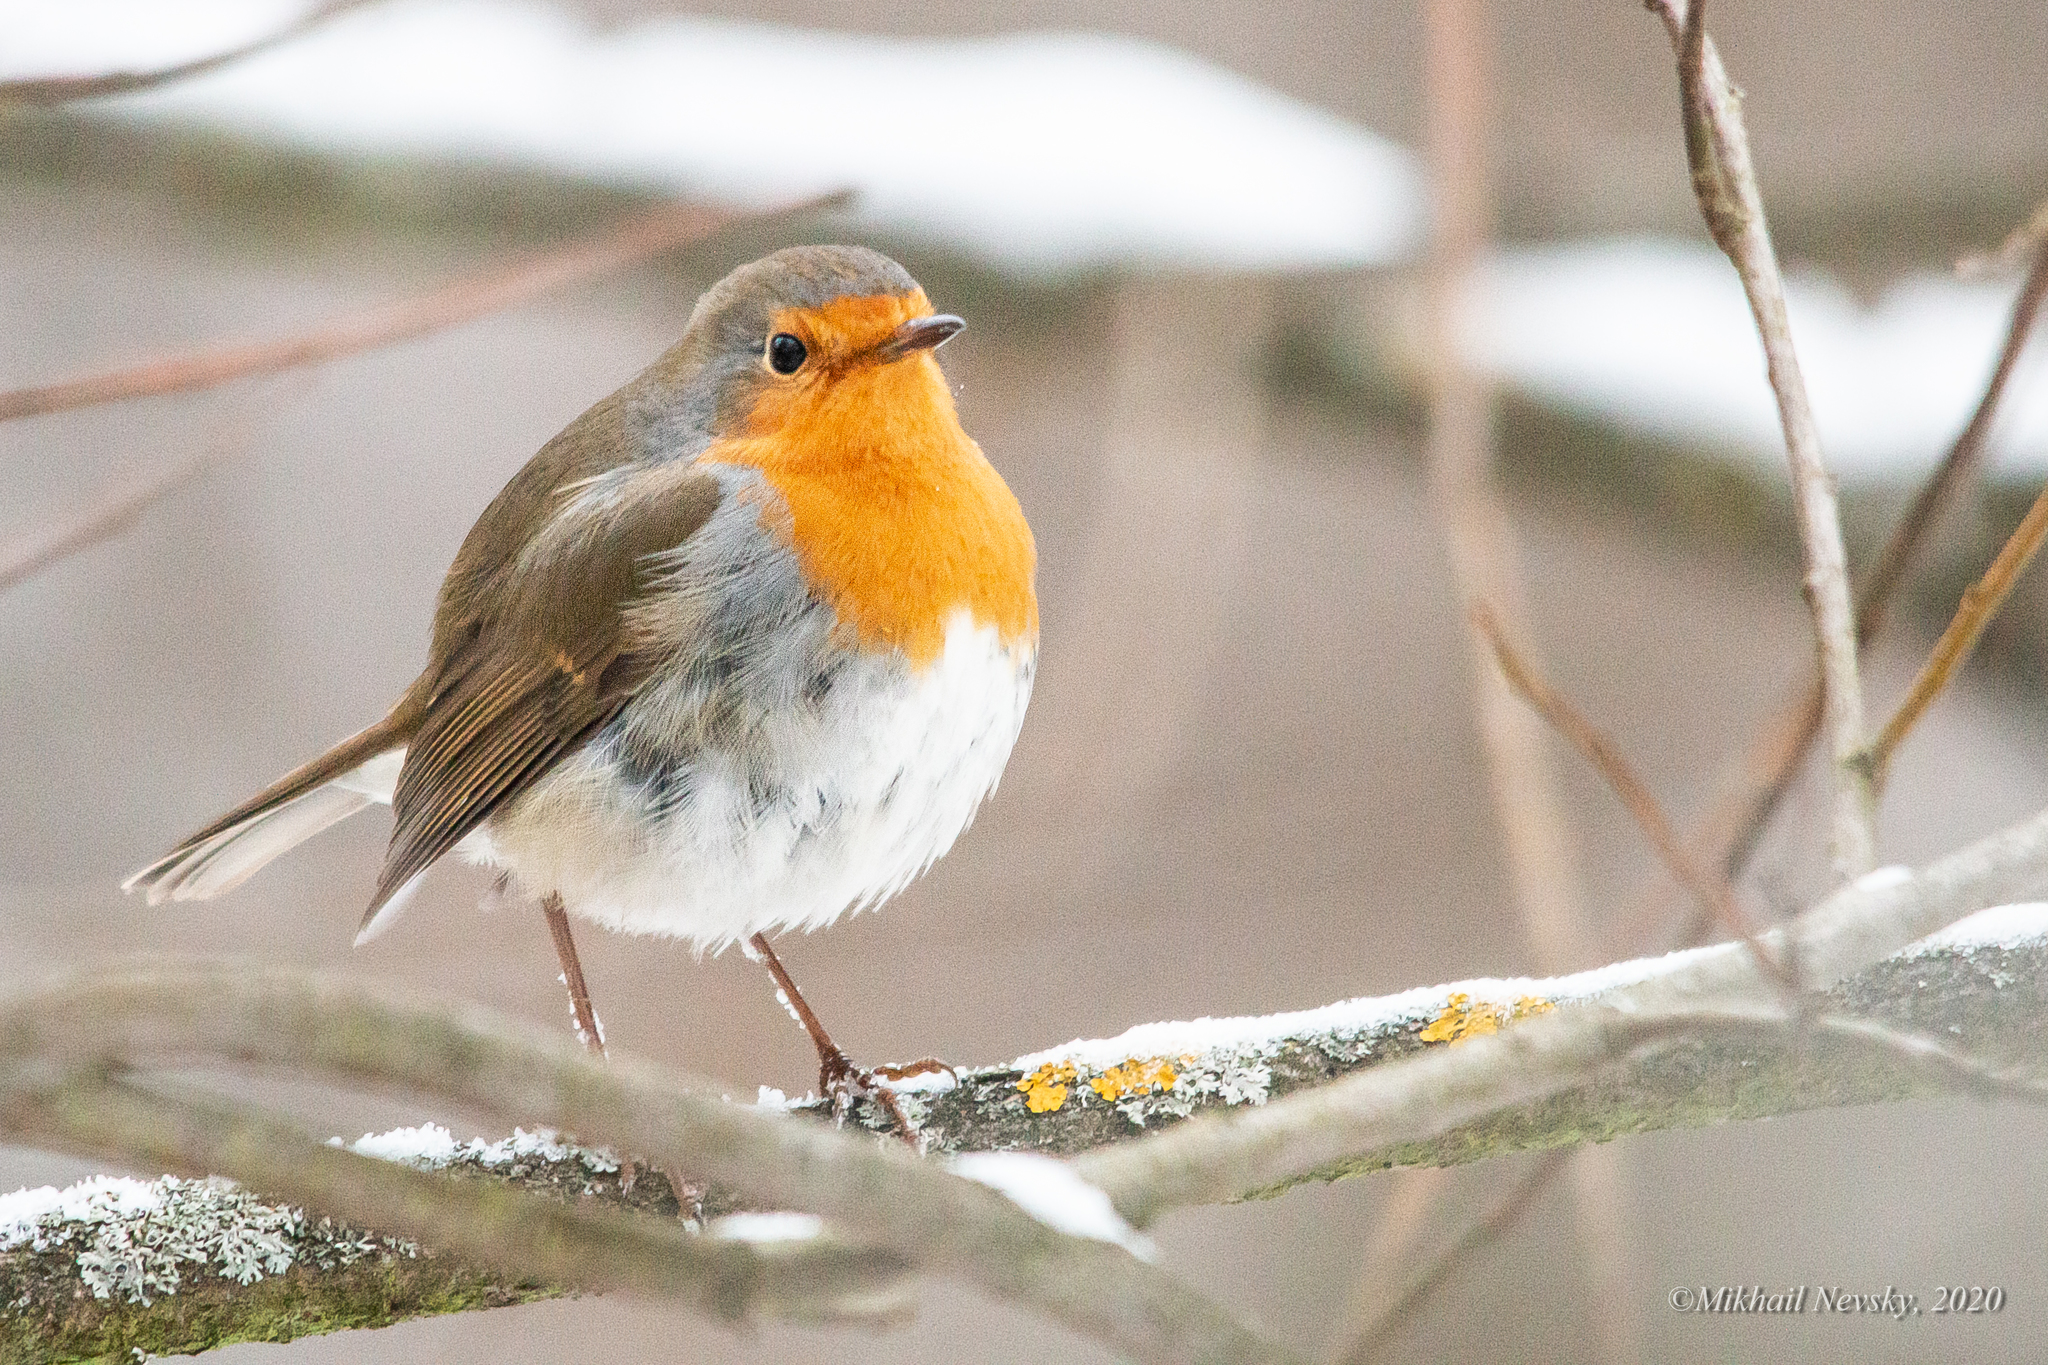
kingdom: Animalia
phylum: Chordata
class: Aves
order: Passeriformes
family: Muscicapidae
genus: Erithacus
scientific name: Erithacus rubecula
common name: European robin
